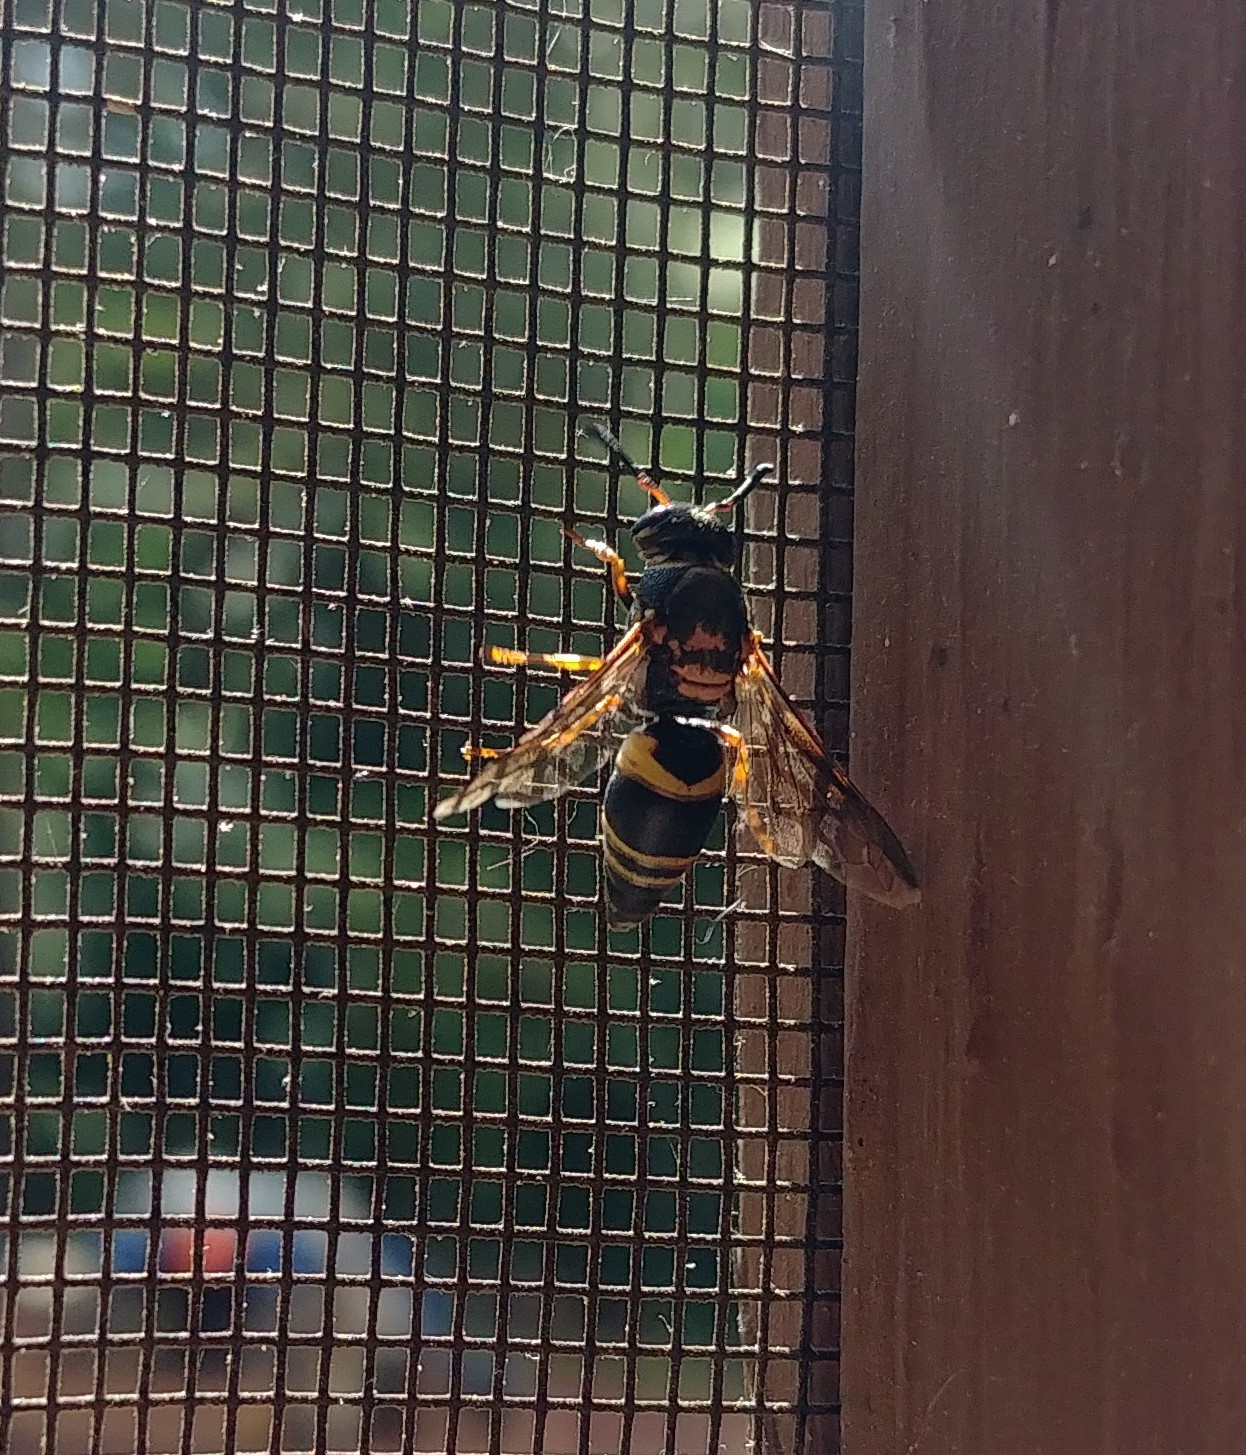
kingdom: Animalia
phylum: Arthropoda
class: Insecta
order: Hymenoptera
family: Eumenidae
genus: Euodynerus
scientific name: Euodynerus hidalgo
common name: Wasp
